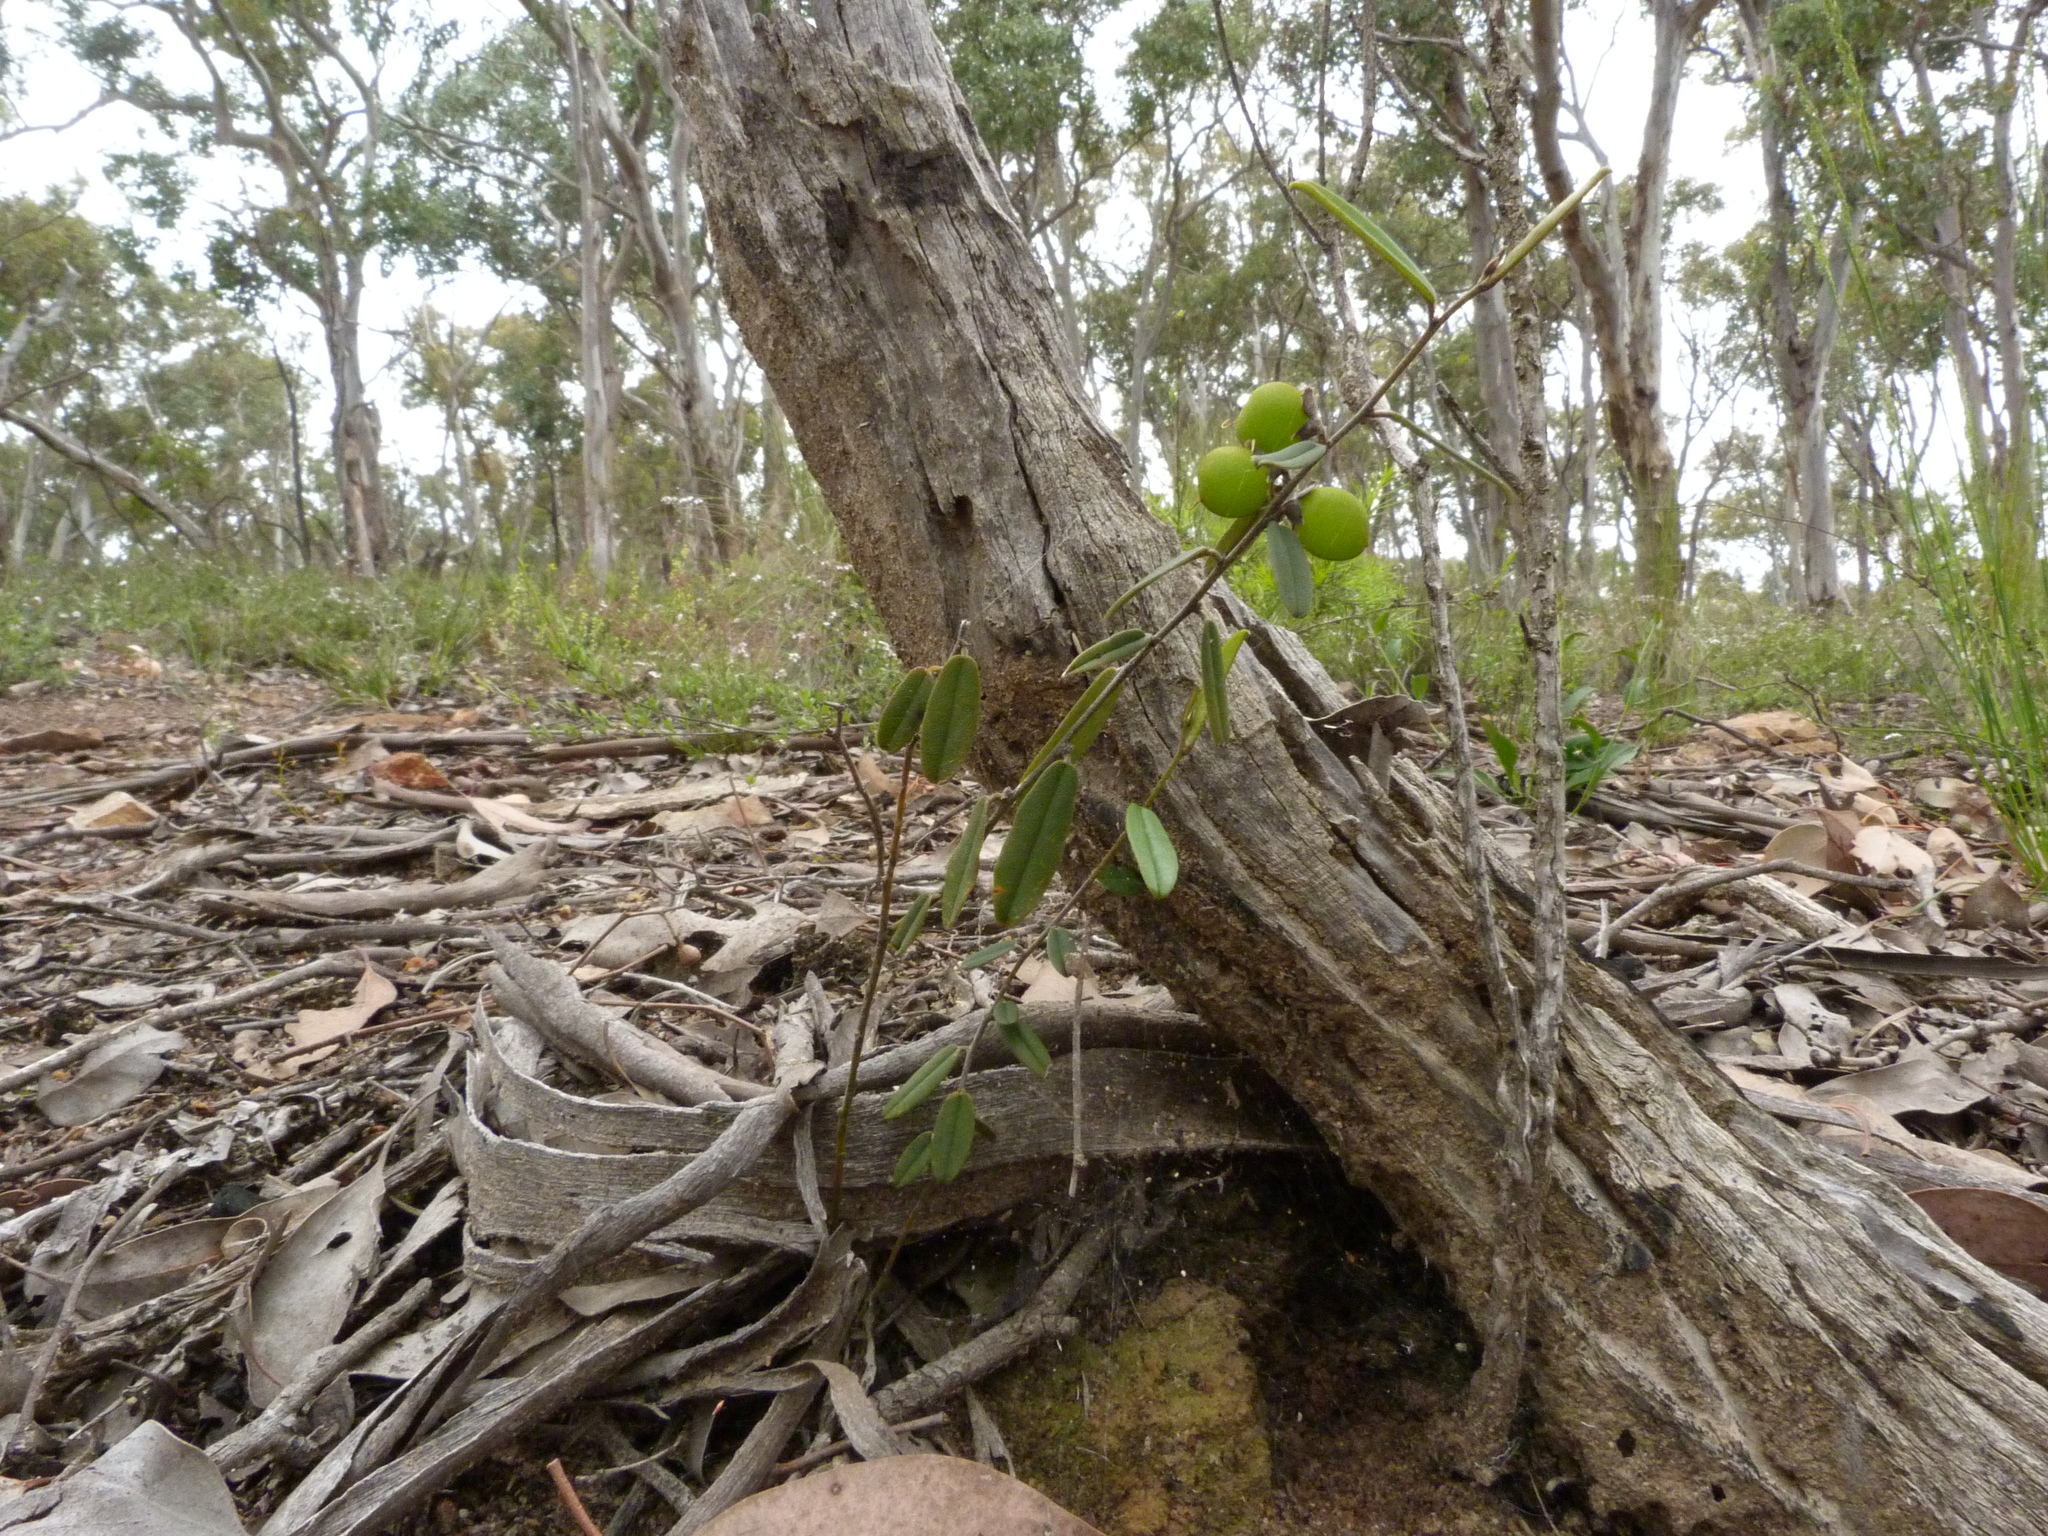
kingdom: Plantae
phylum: Tracheophyta
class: Magnoliopsida
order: Fabales
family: Fabaceae
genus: Hovea
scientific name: Hovea heterophylla
